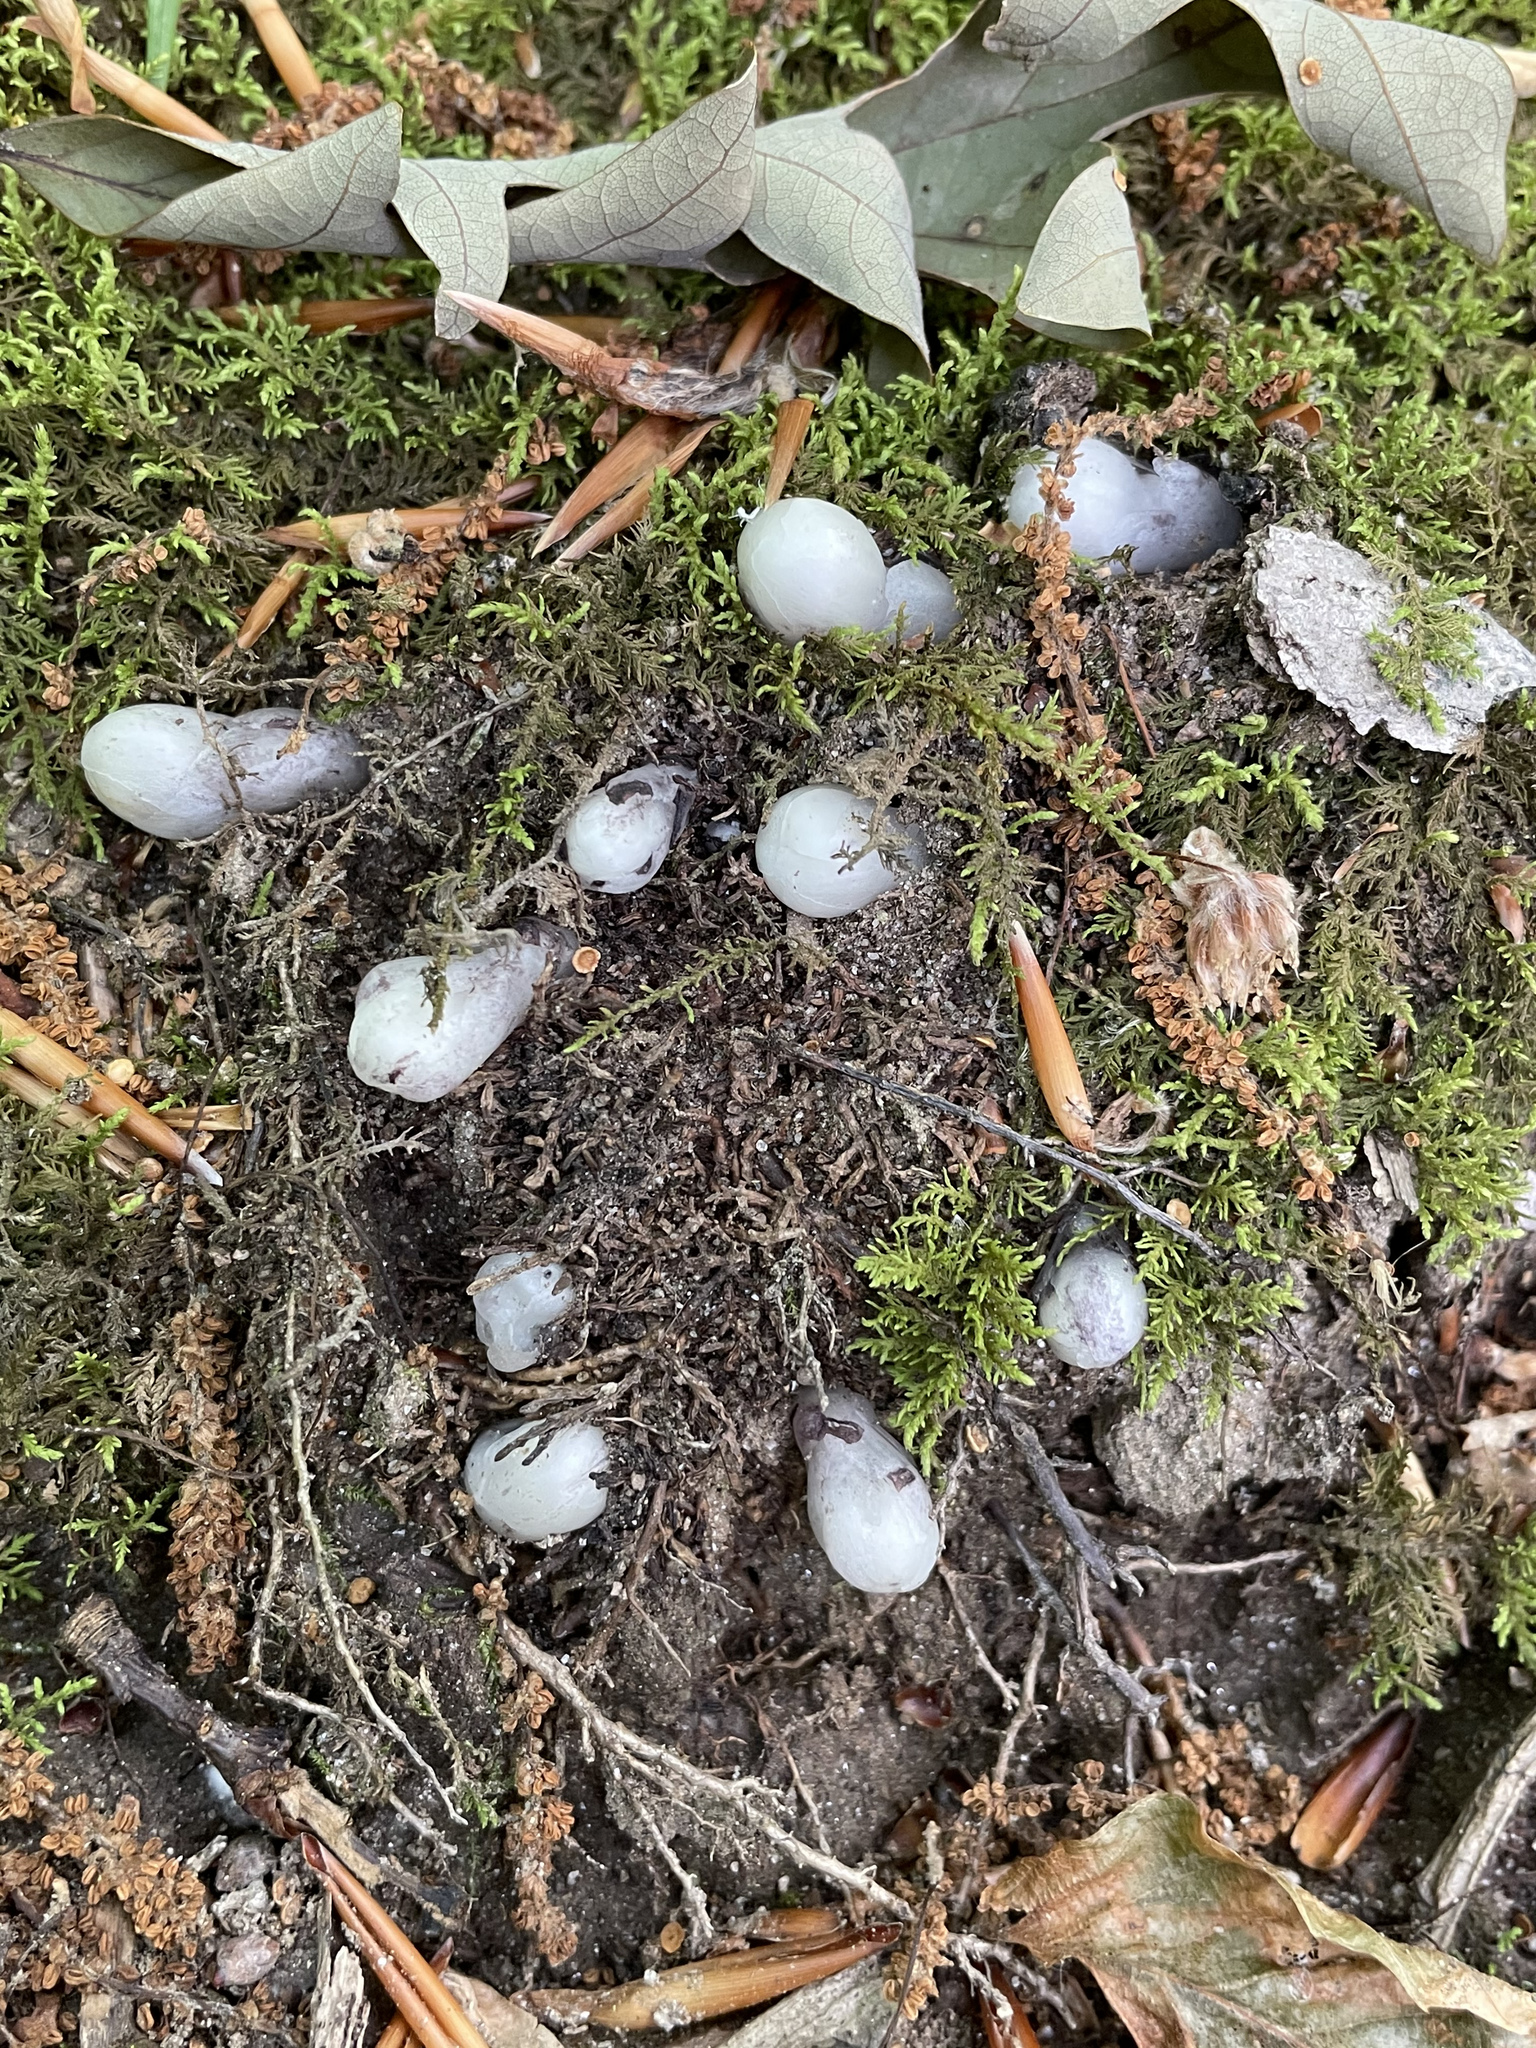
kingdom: Plantae
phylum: Tracheophyta
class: Magnoliopsida
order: Ericales
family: Ericaceae
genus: Monotropa
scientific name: Monotropa uniflora
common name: Convulsion root
